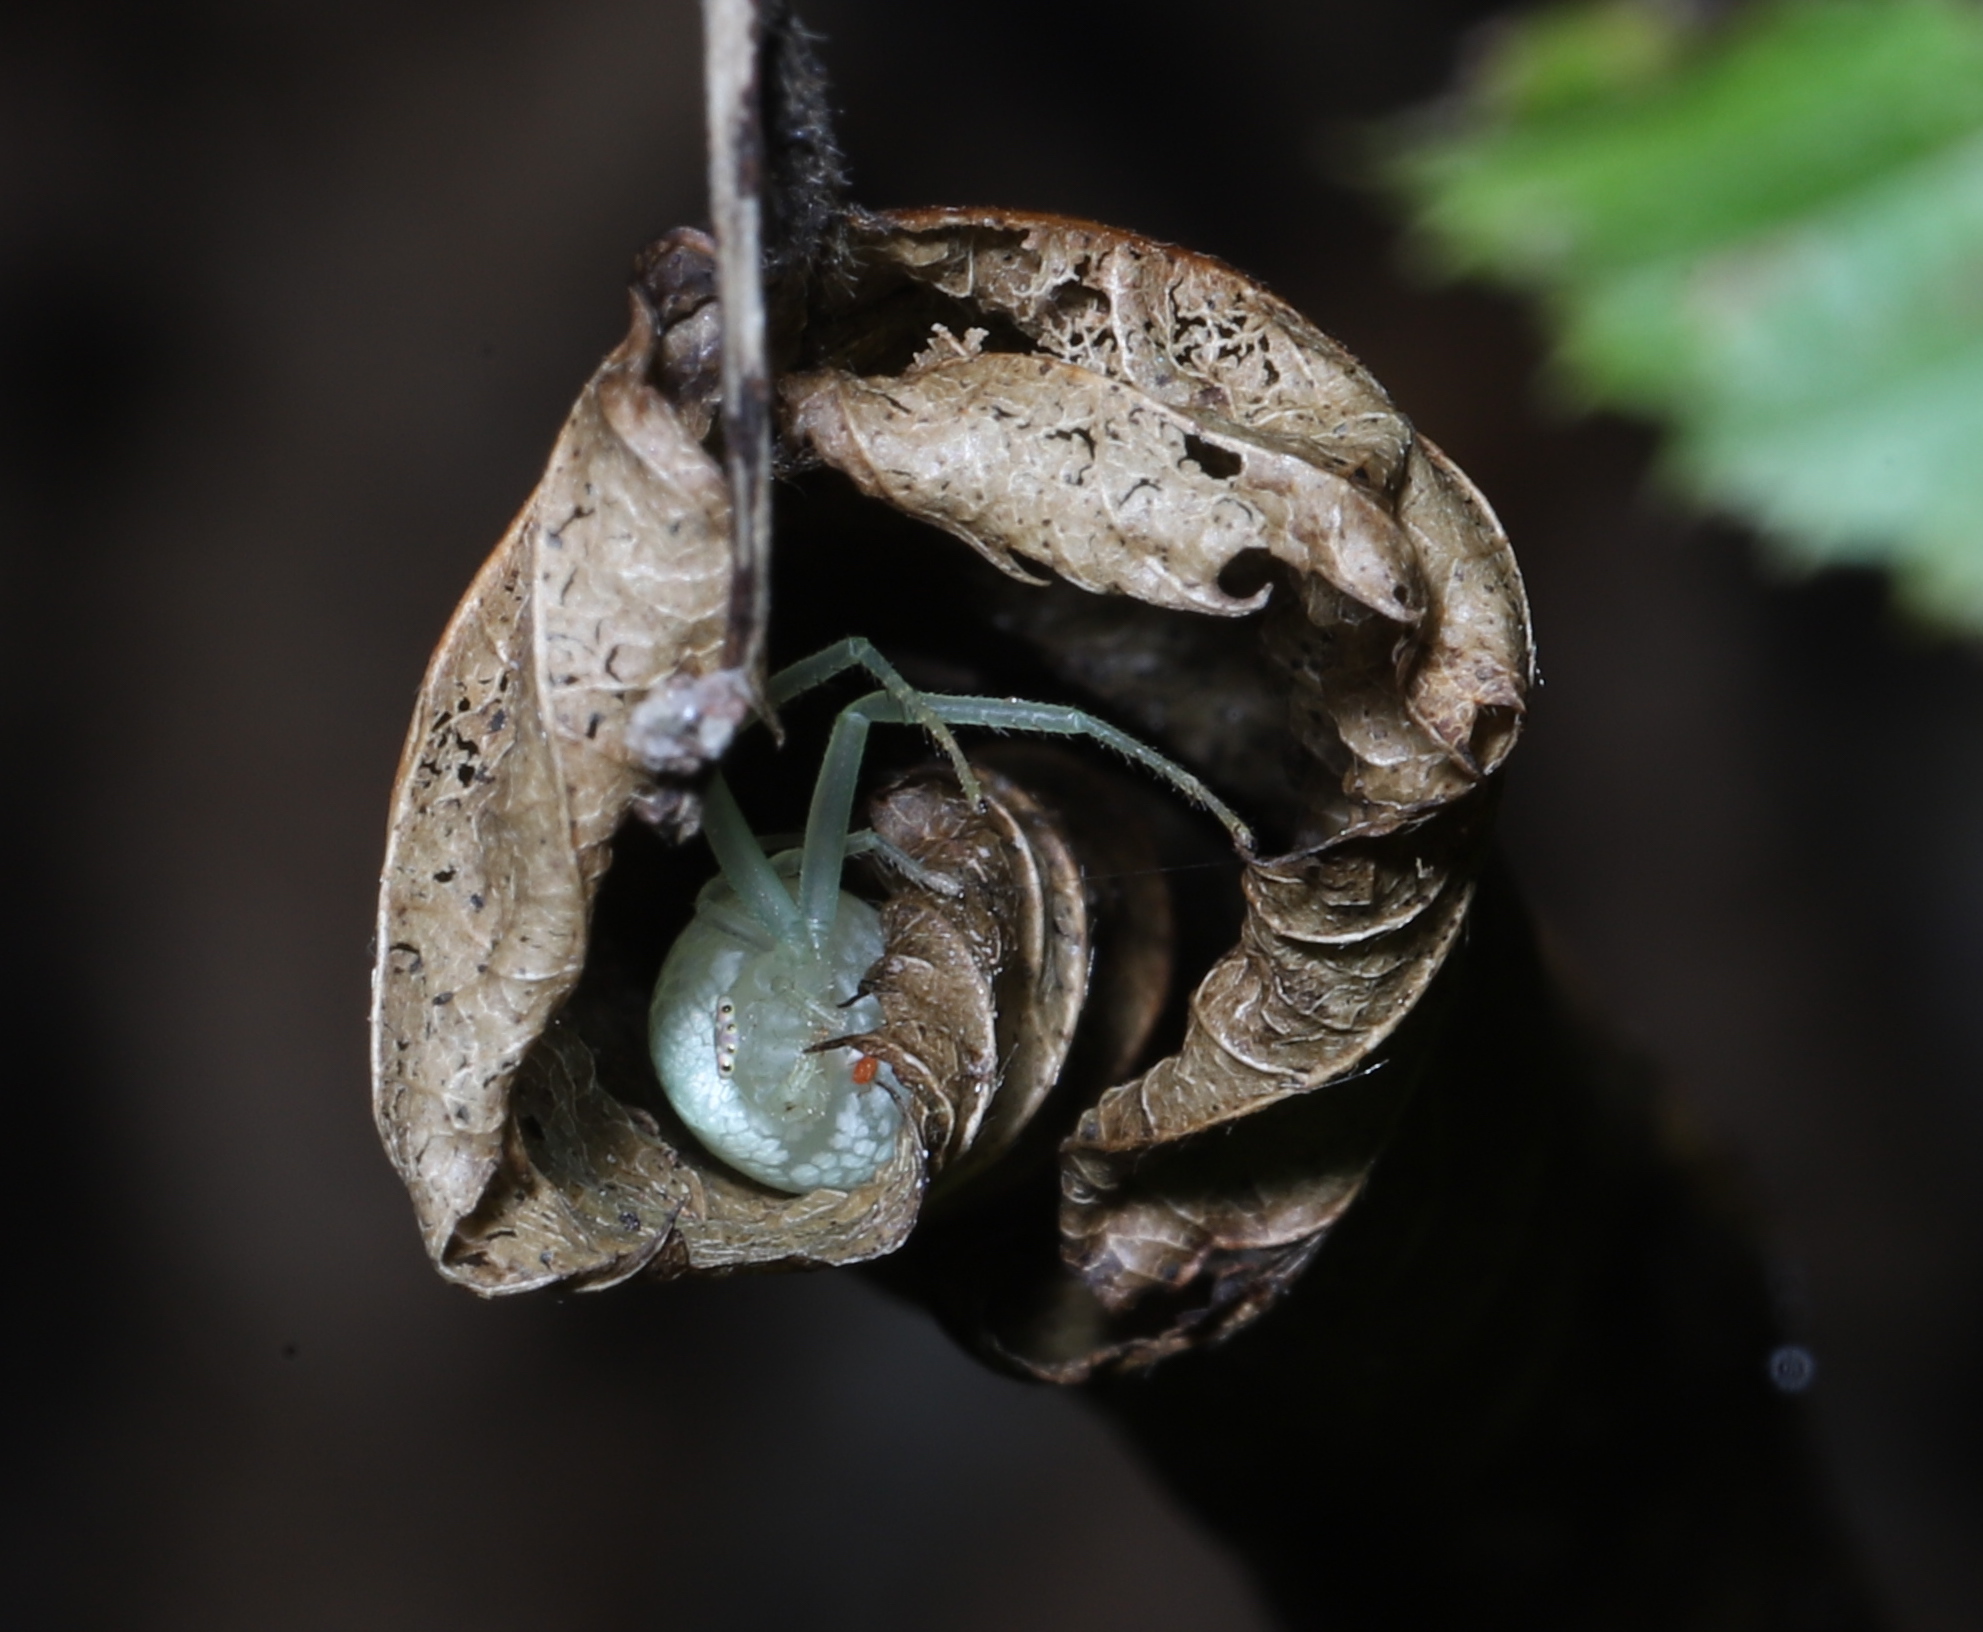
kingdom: Animalia
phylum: Arthropoda
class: Arachnida
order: Araneae
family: Thomisidae
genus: Misumessus
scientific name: Misumessus oblongus
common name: American green crab spider
